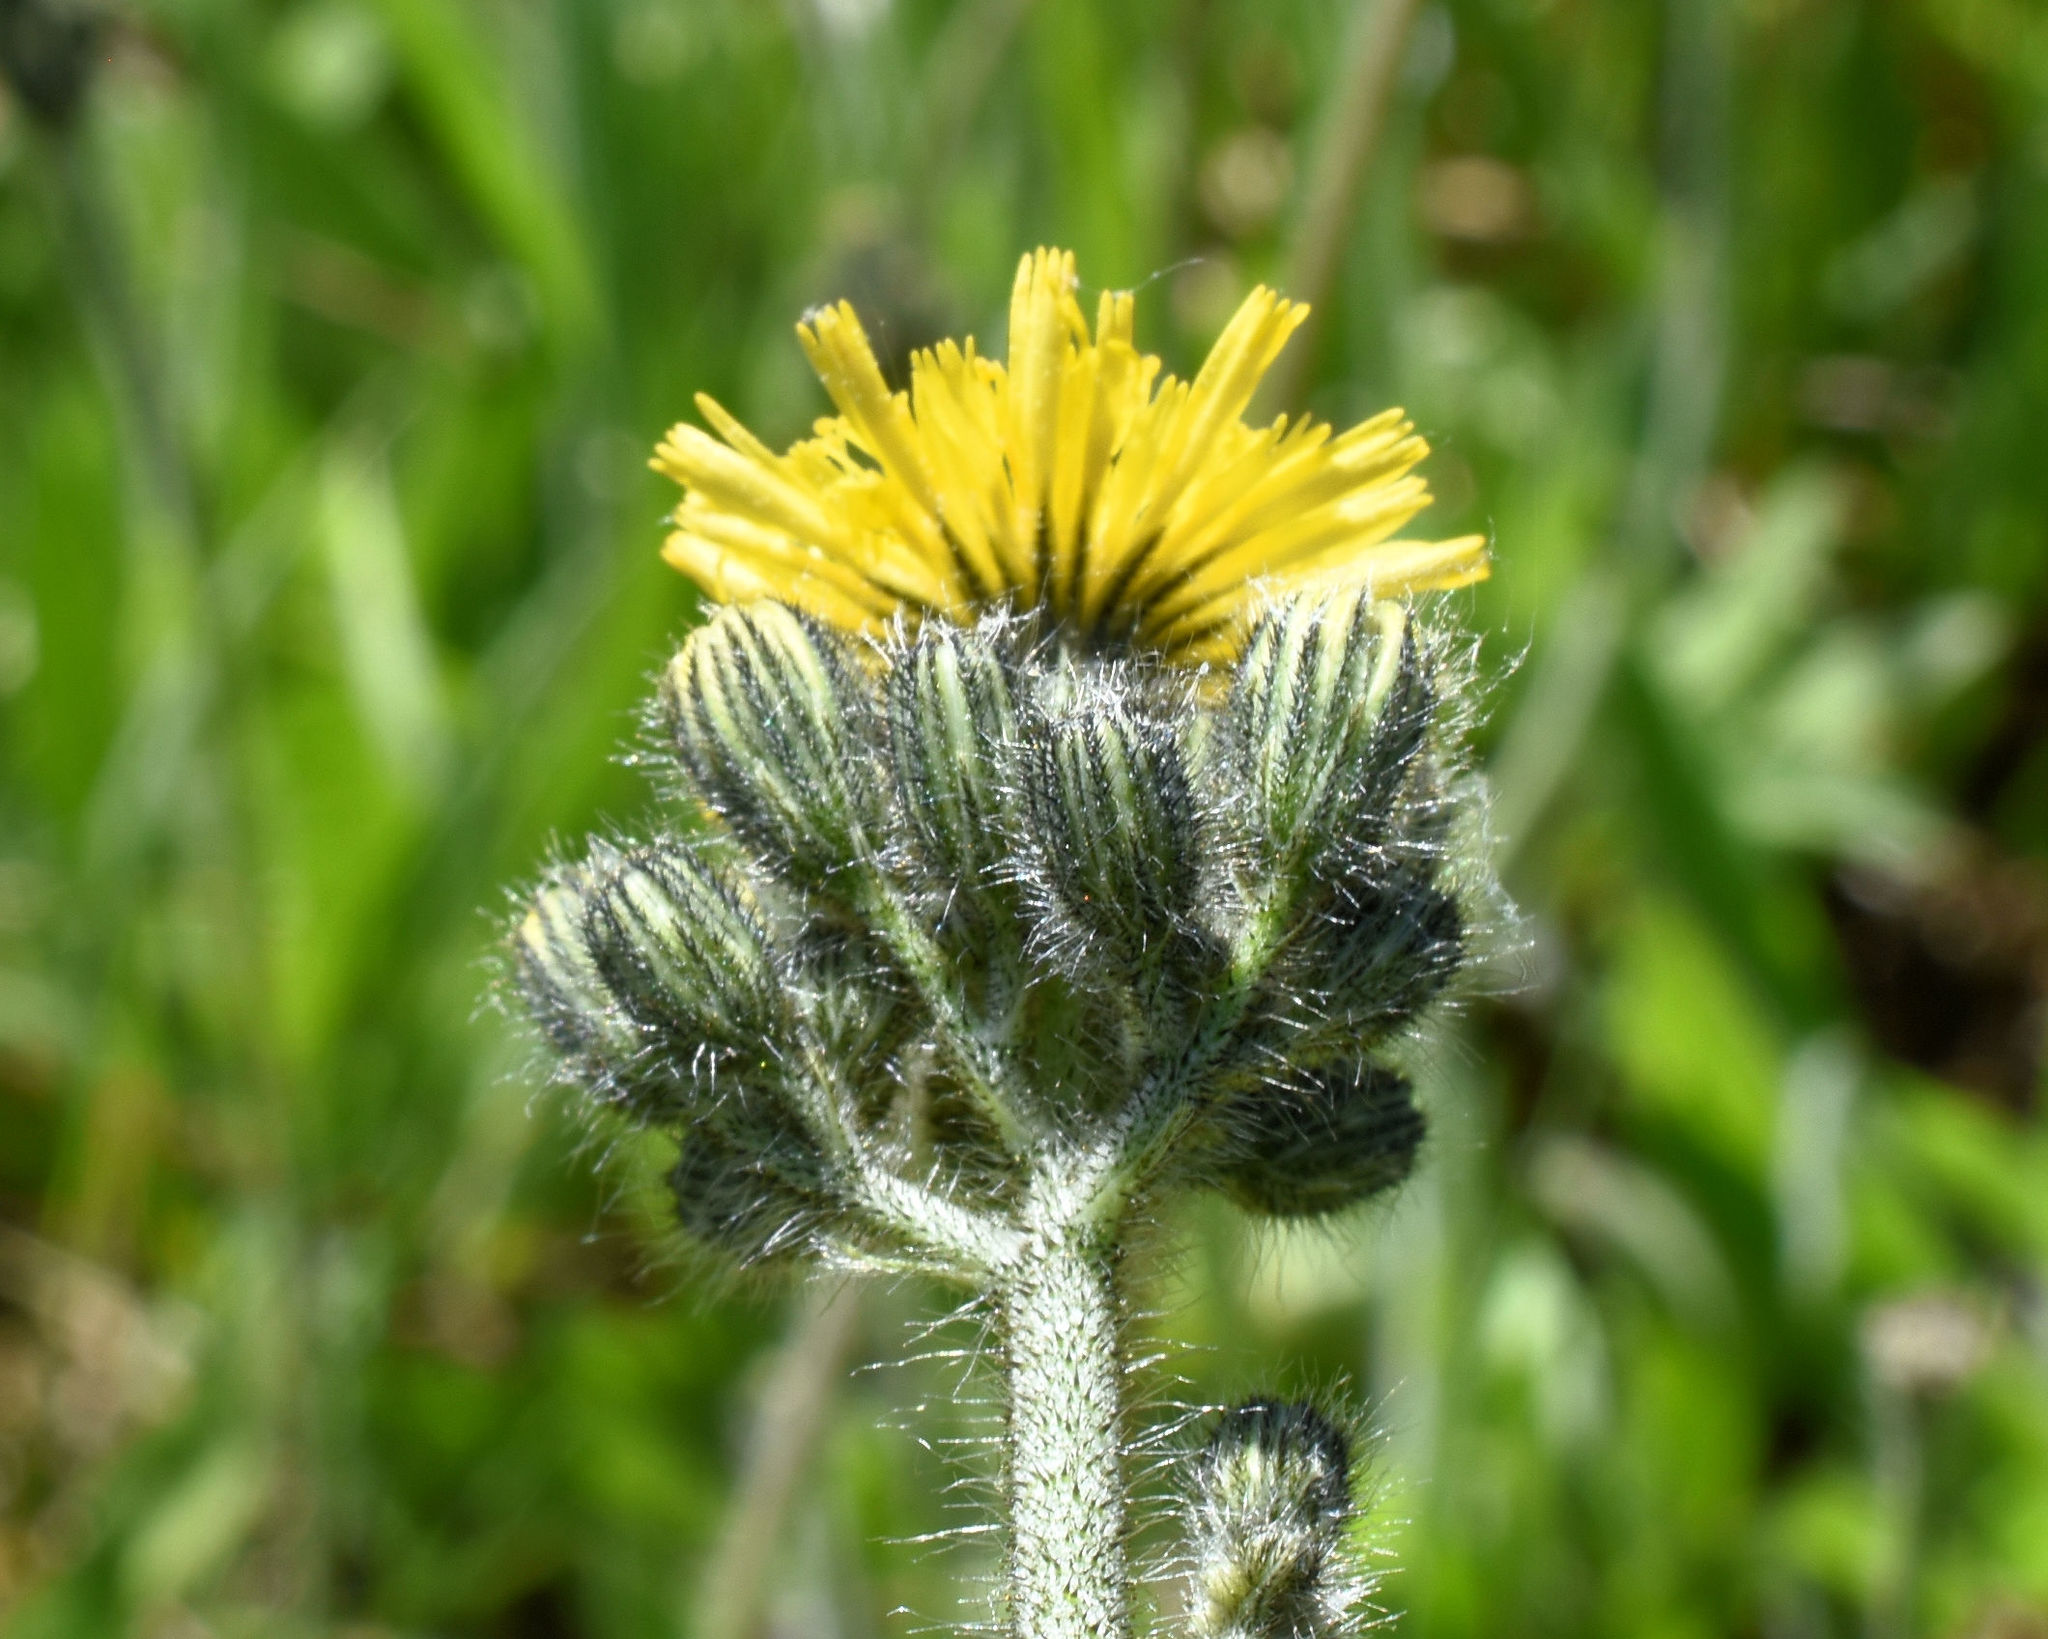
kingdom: Plantae
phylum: Tracheophyta
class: Magnoliopsida
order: Asterales
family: Asteraceae
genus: Pilosella
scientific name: Pilosella caespitosa
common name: Yellow fox-and-cubs
